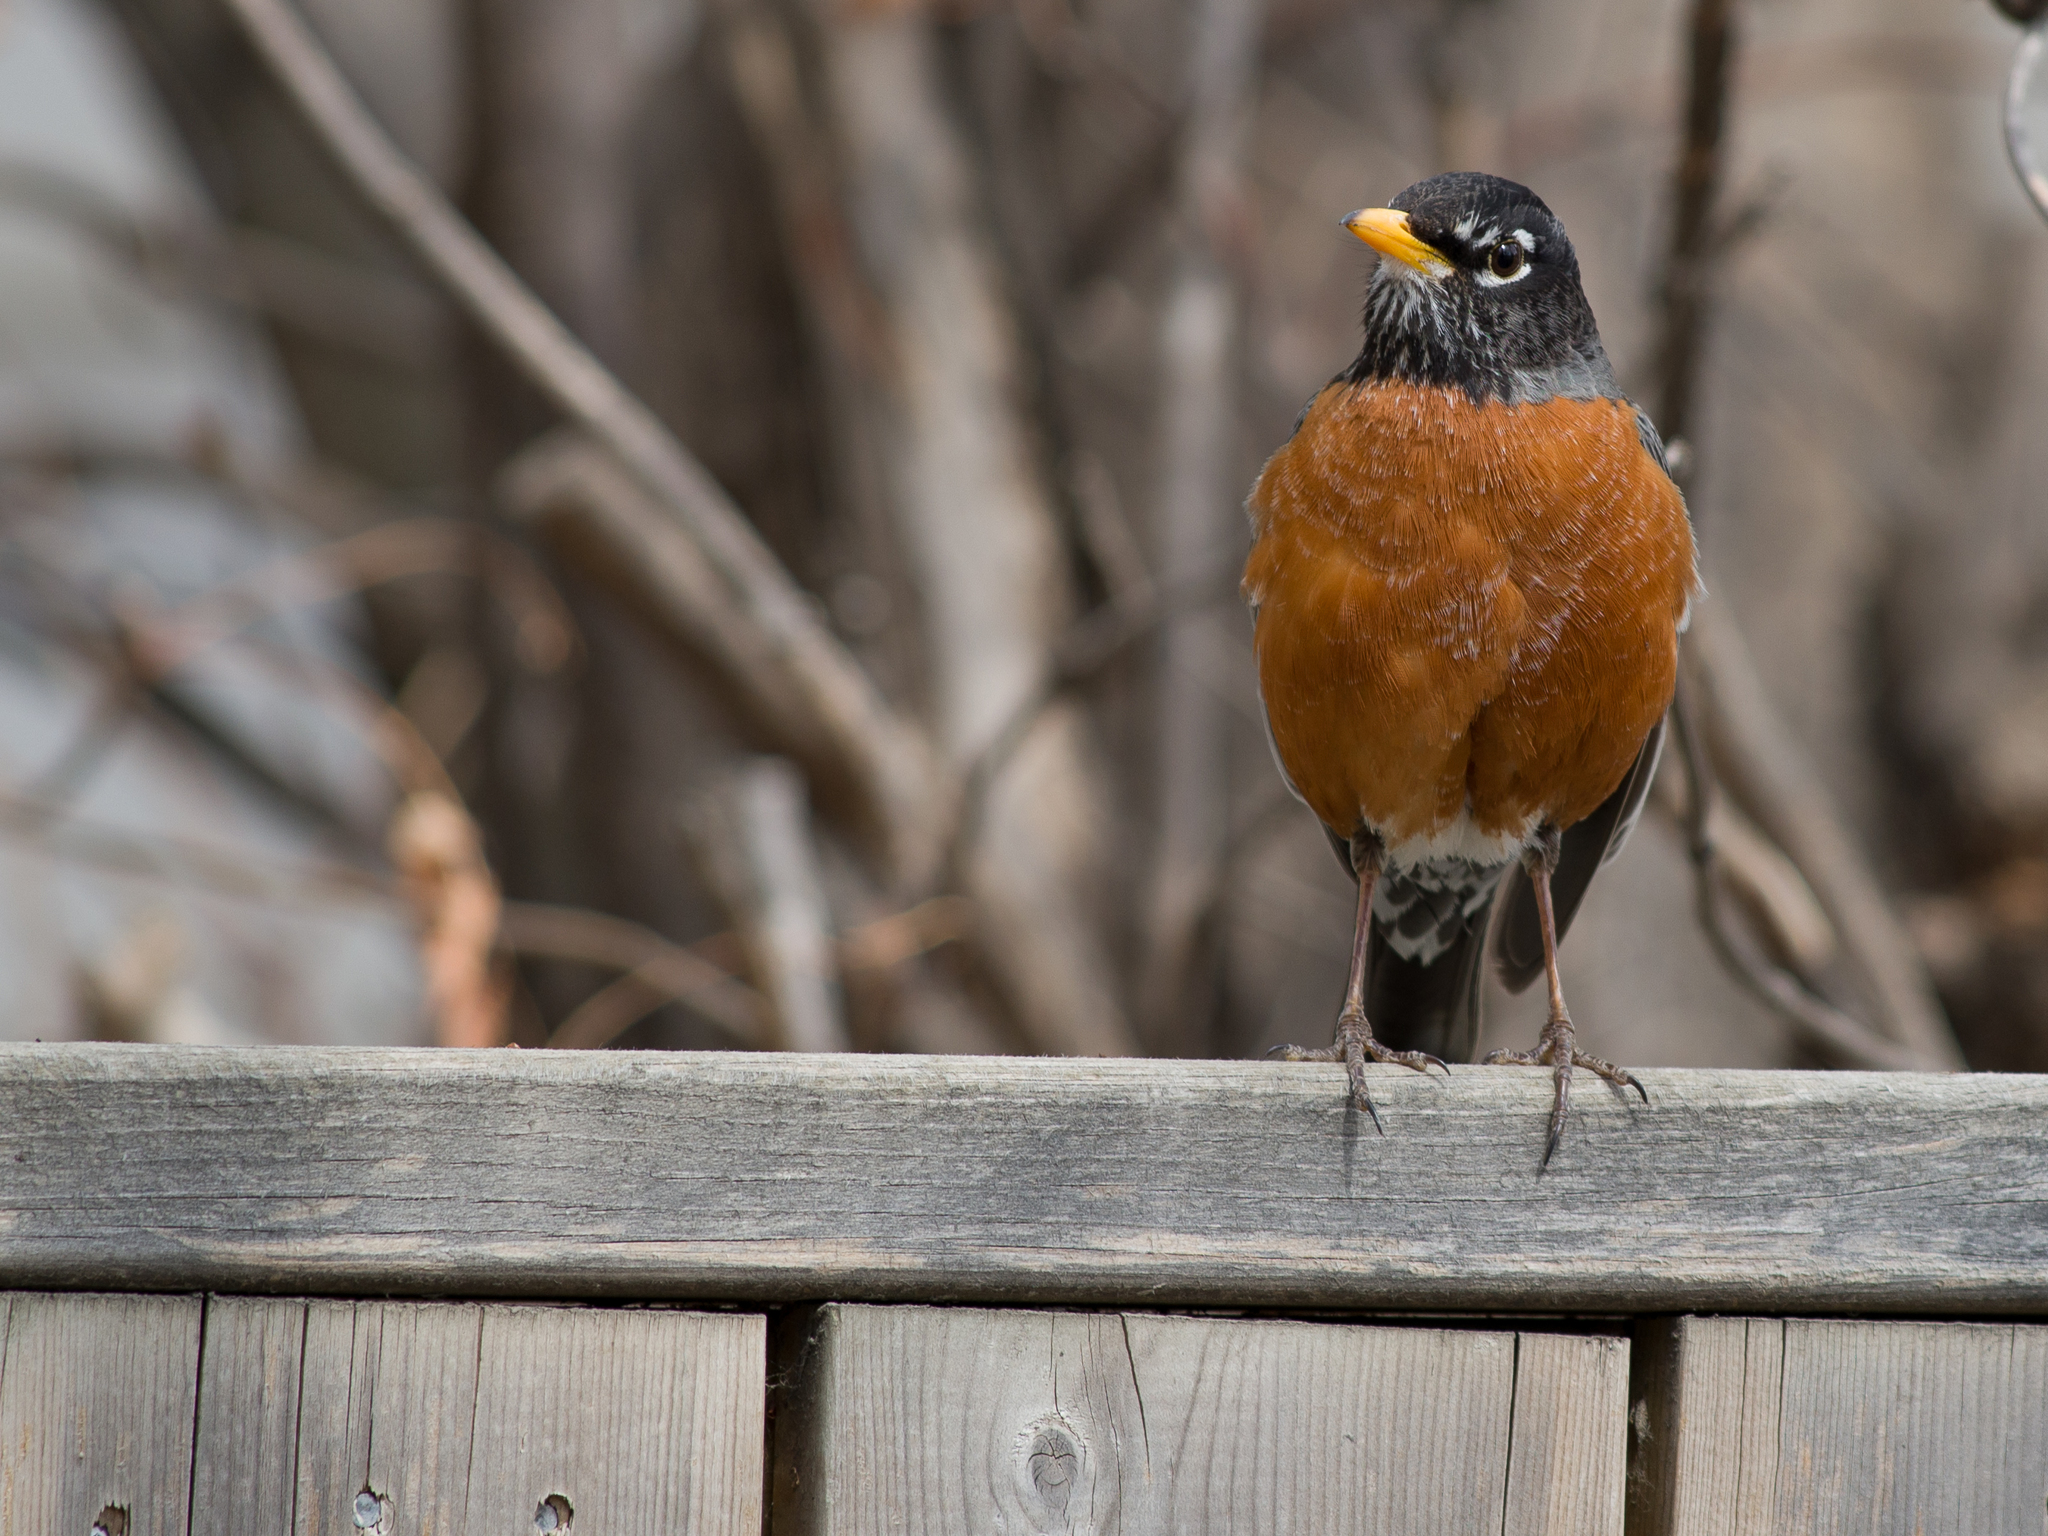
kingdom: Animalia
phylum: Chordata
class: Aves
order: Passeriformes
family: Turdidae
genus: Turdus
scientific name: Turdus migratorius
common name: American robin
